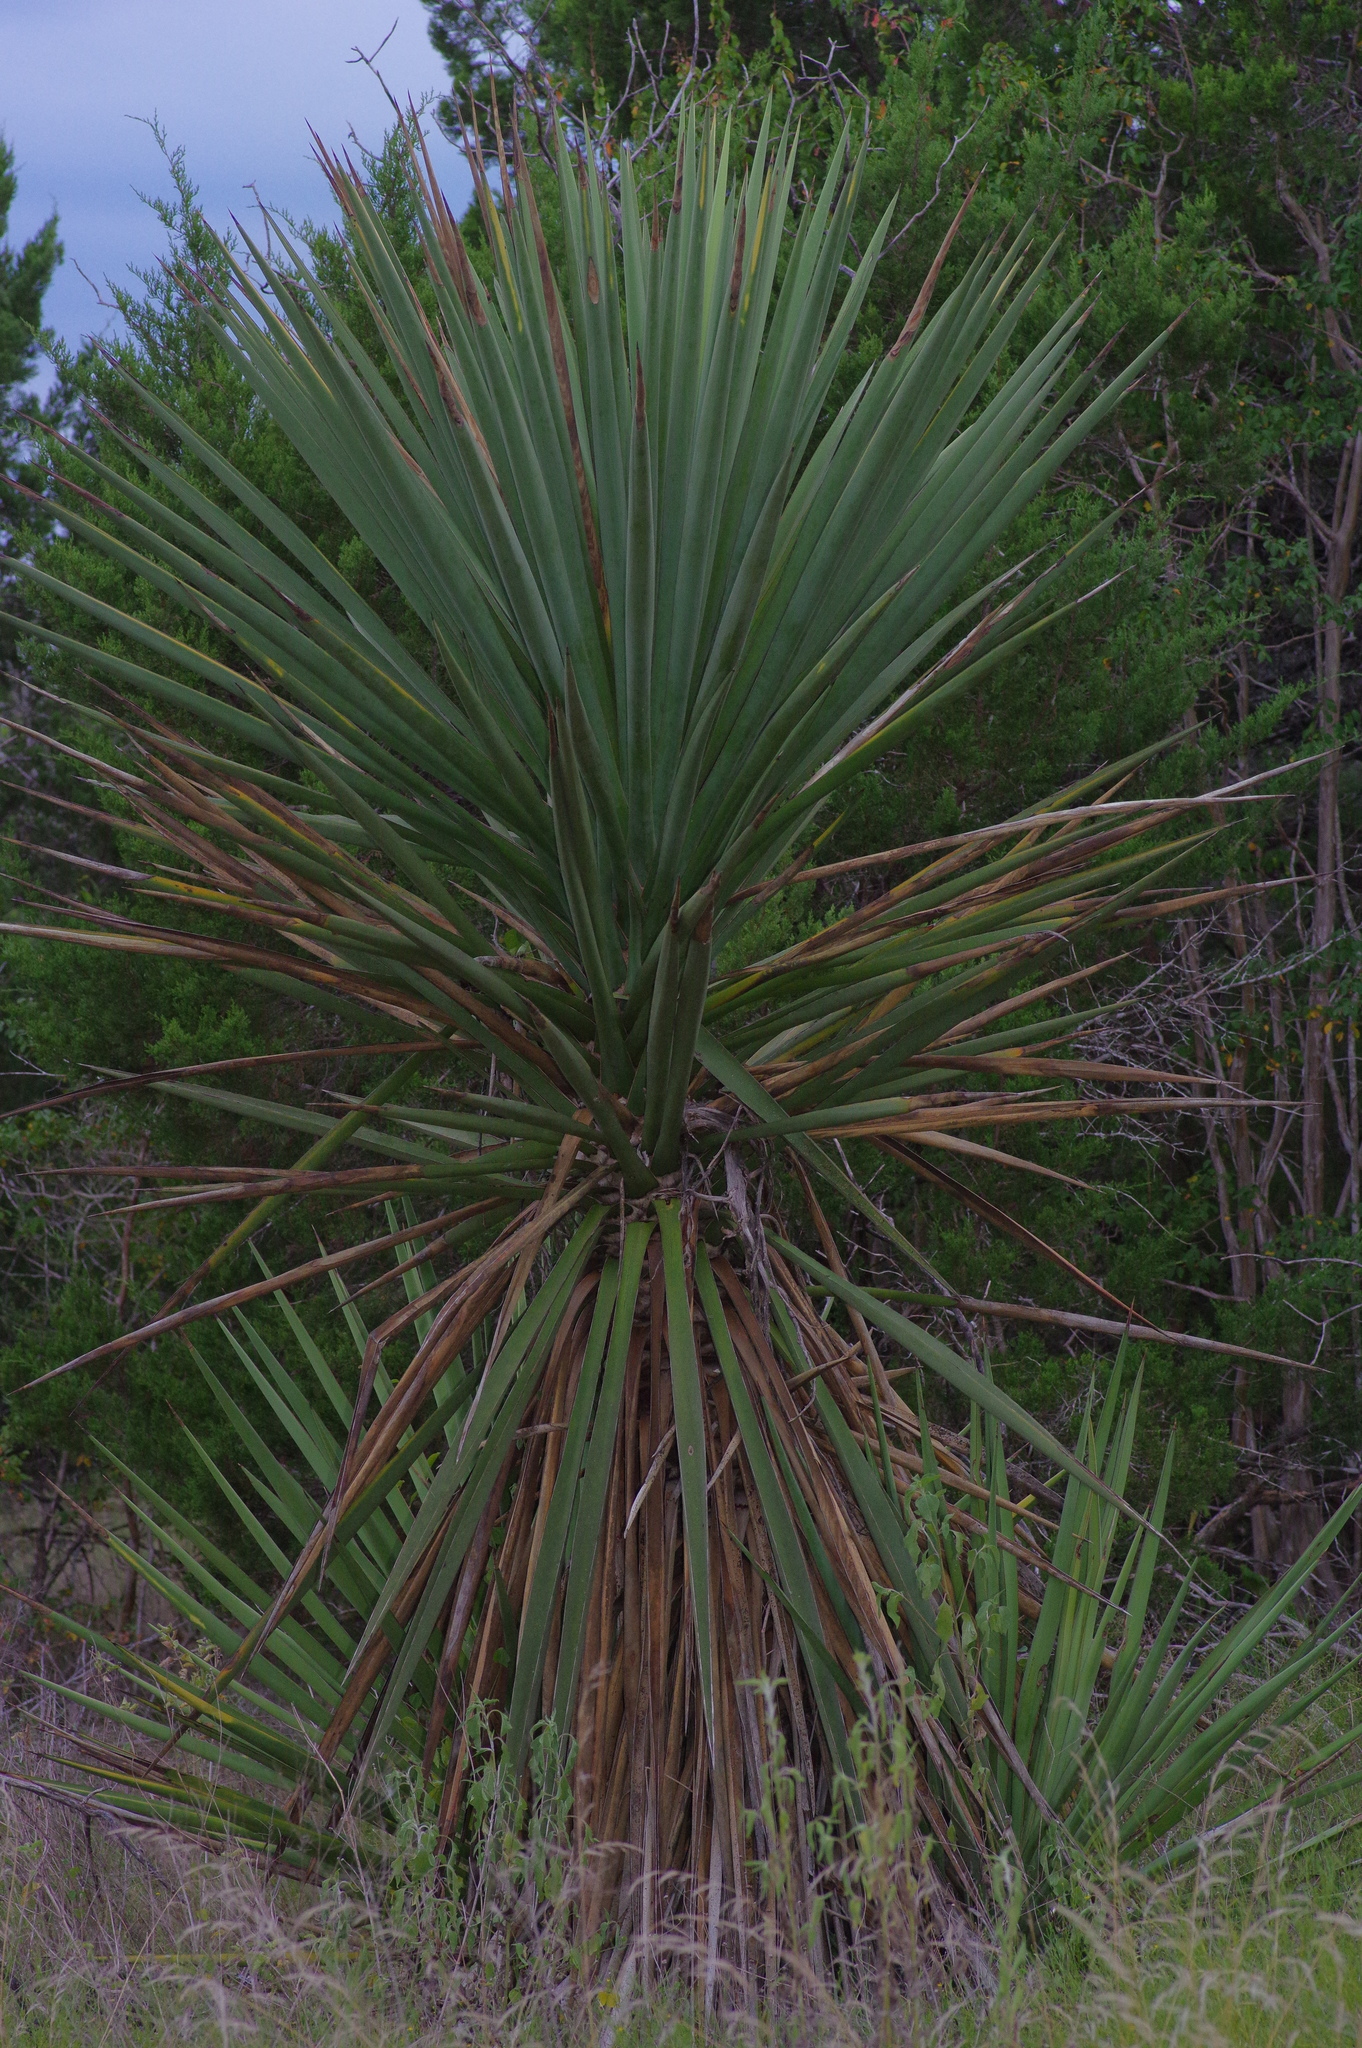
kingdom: Plantae
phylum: Tracheophyta
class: Liliopsida
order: Asparagales
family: Asparagaceae
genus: Yucca
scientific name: Yucca treculiana
